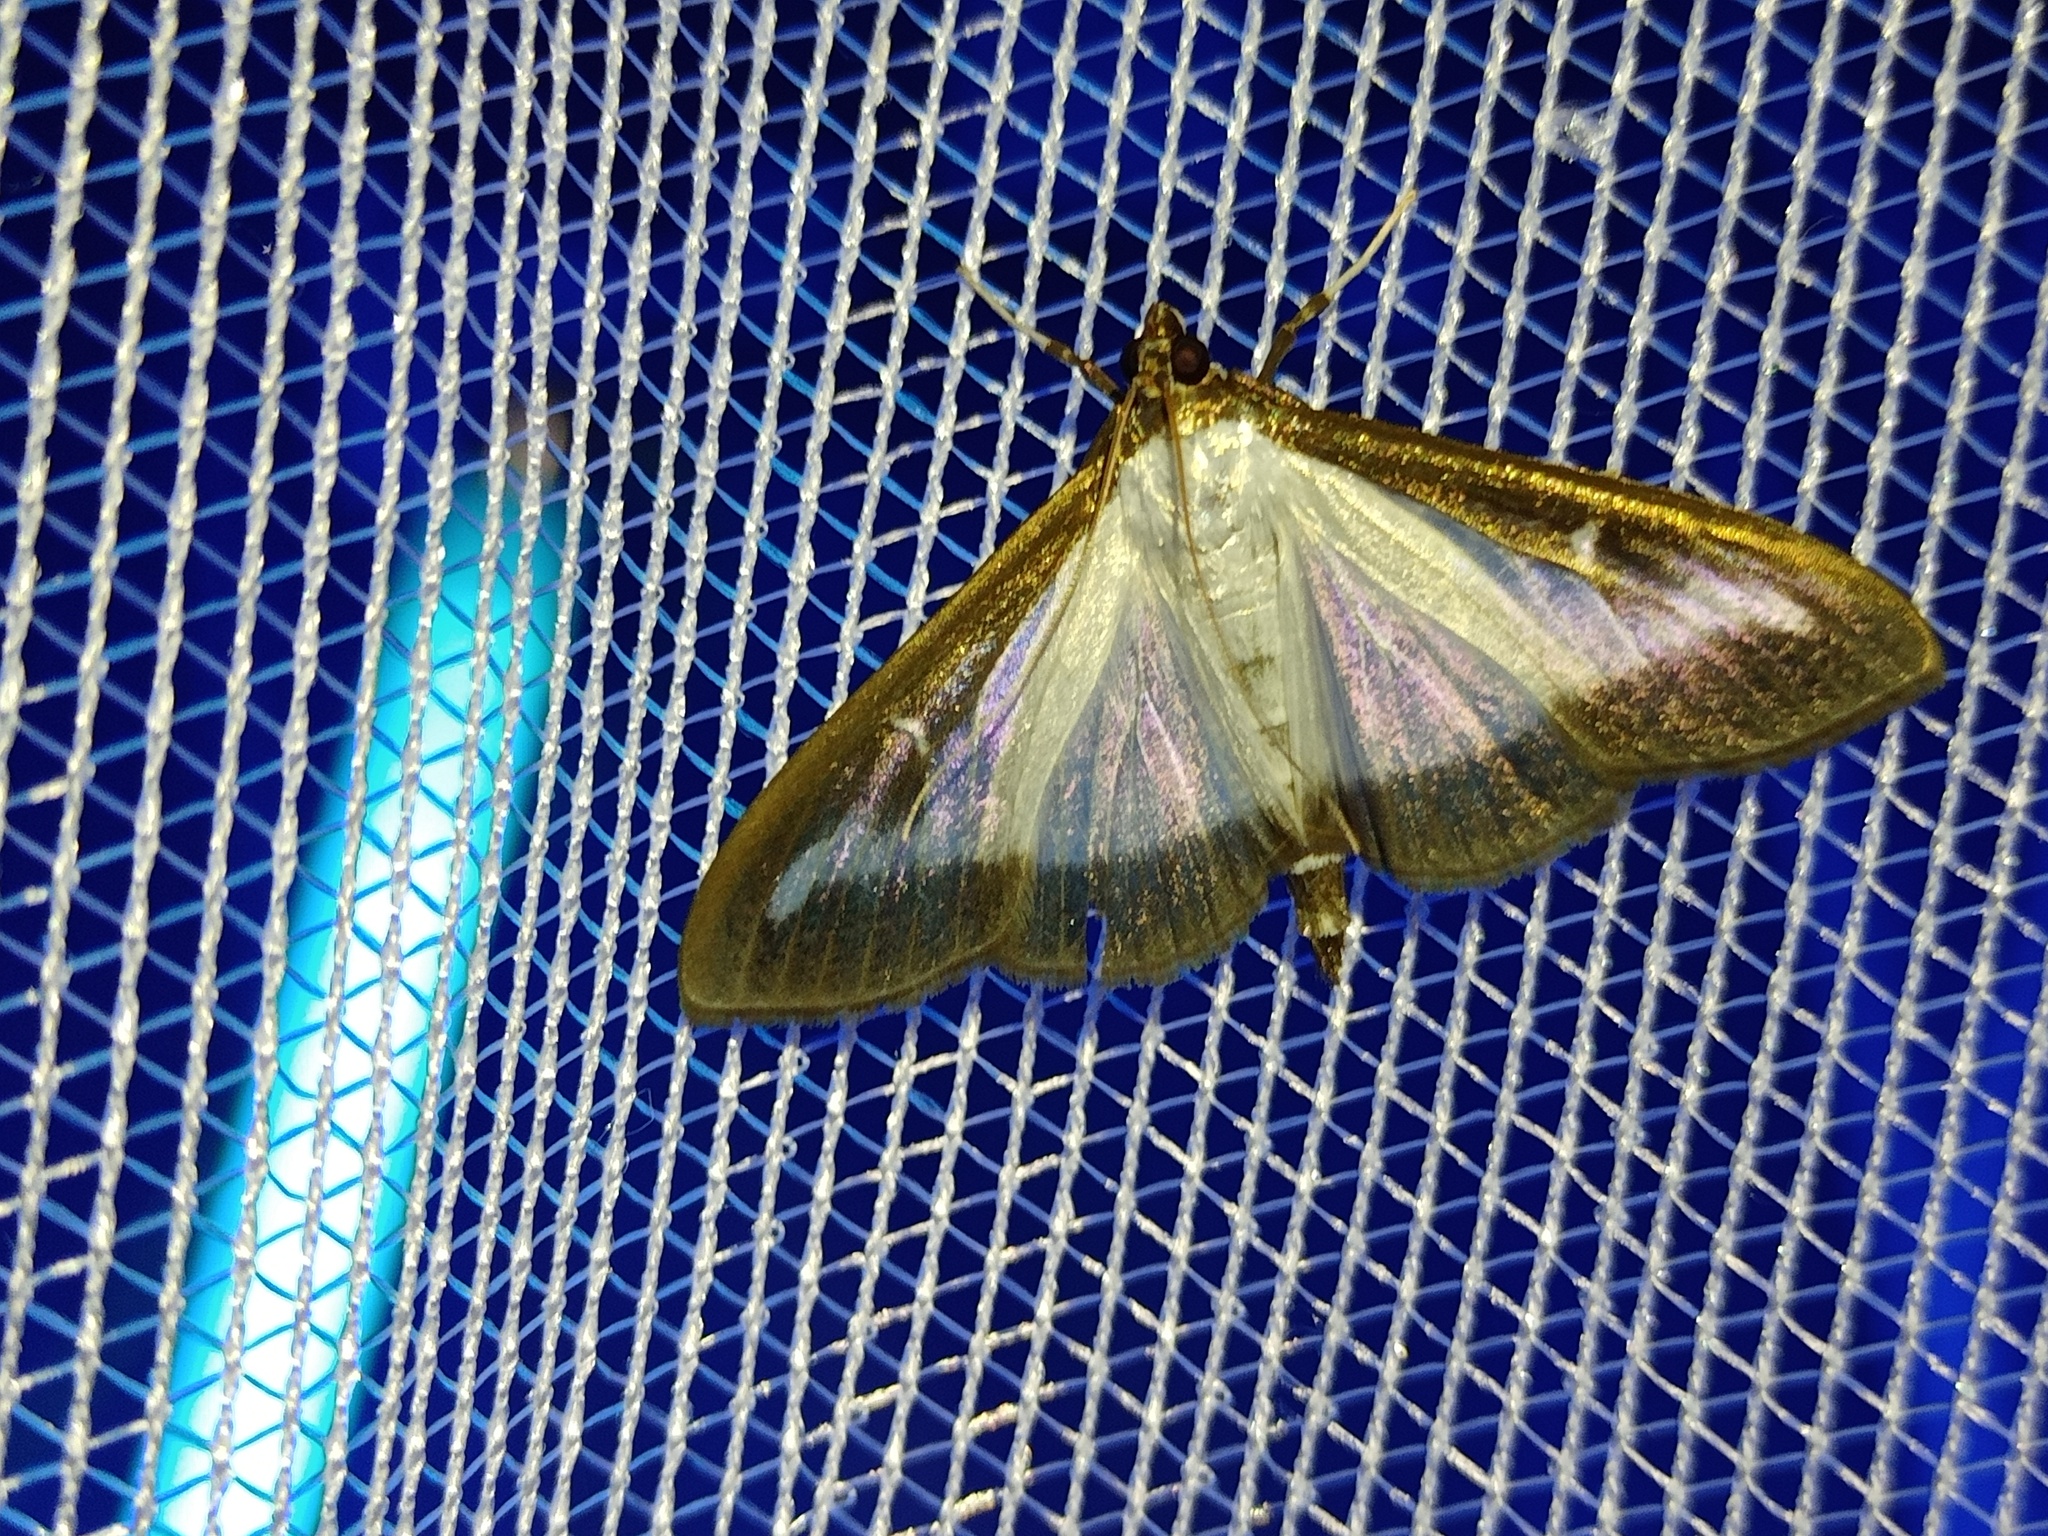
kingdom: Animalia
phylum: Arthropoda
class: Insecta
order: Lepidoptera
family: Crambidae
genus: Cydalima
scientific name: Cydalima perspectalis
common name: Box tree moth
